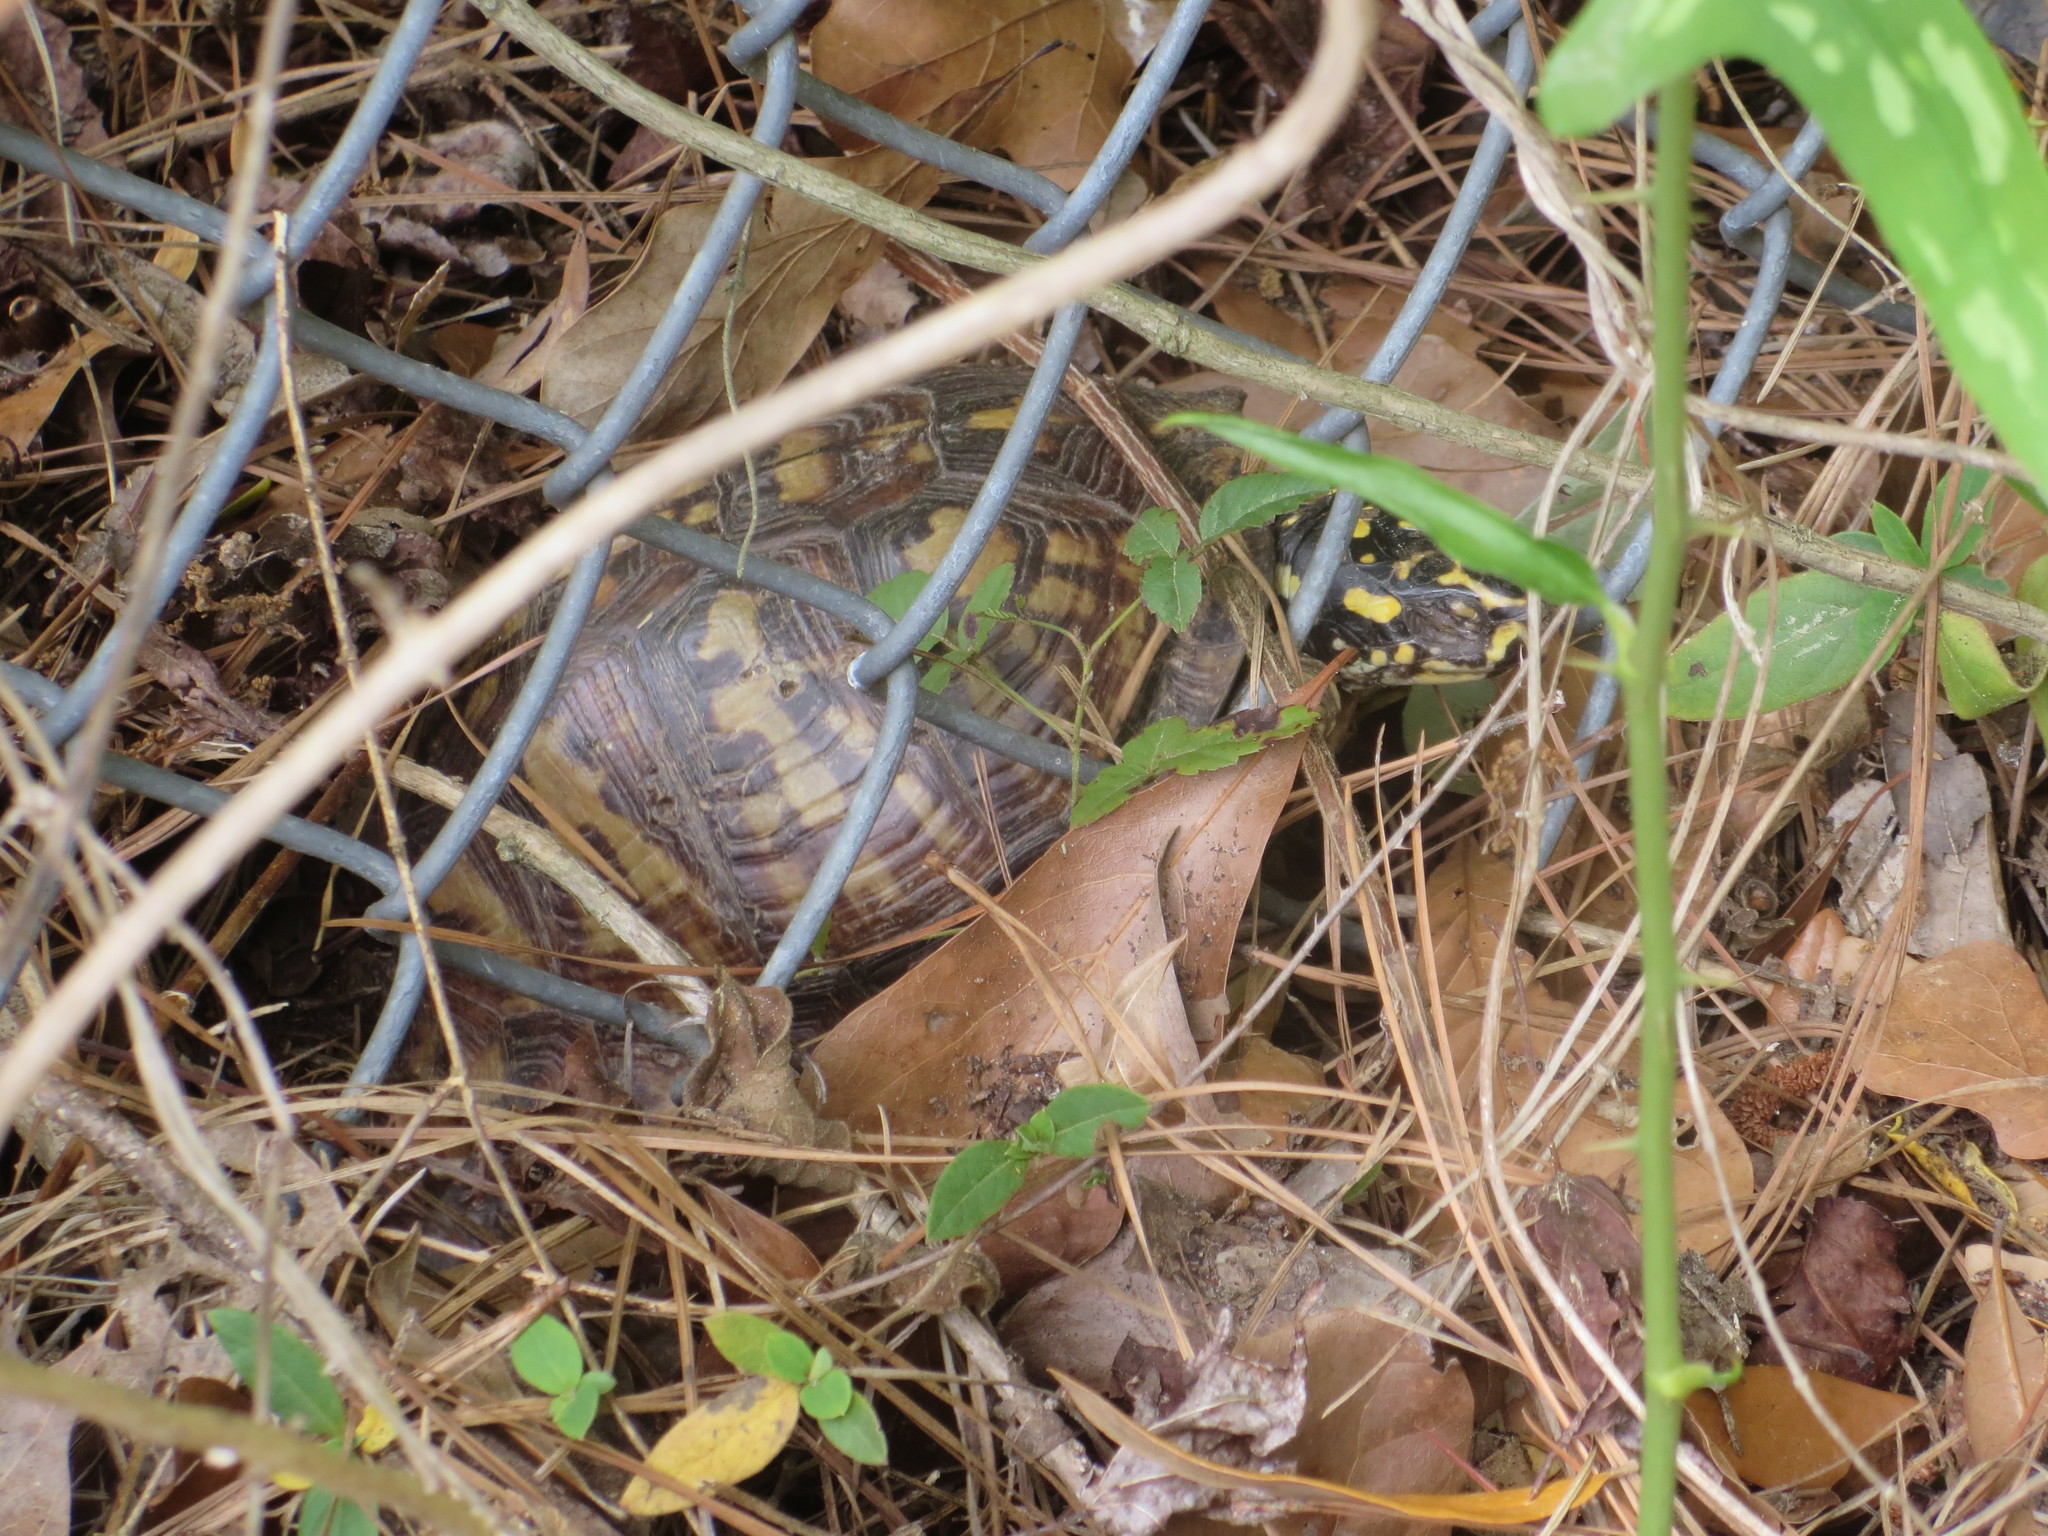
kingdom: Animalia
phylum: Chordata
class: Testudines
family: Emydidae
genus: Terrapene
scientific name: Terrapene carolina
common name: Common box turtle
